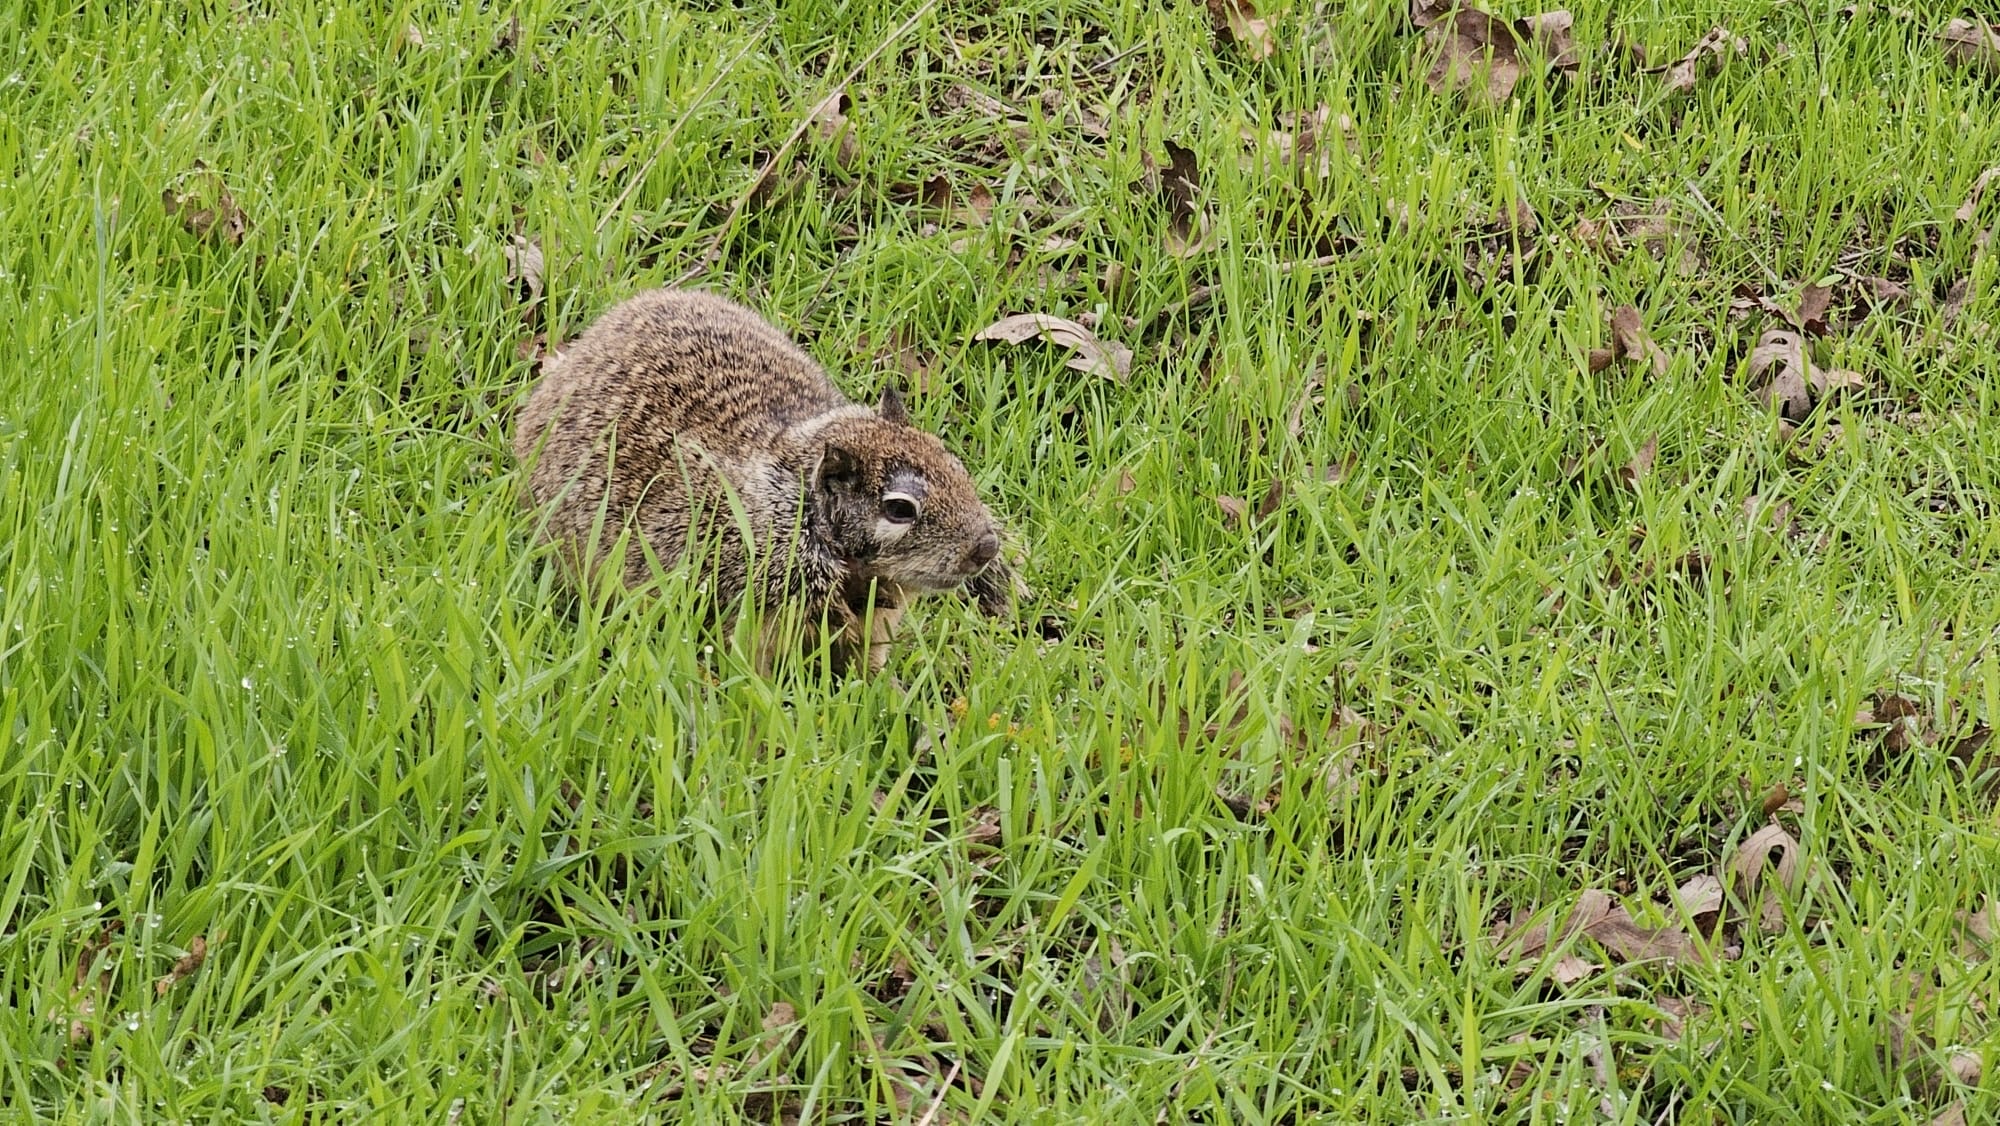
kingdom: Animalia
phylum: Chordata
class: Mammalia
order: Rodentia
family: Sciuridae
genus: Otospermophilus
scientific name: Otospermophilus beecheyi
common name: California ground squirrel
